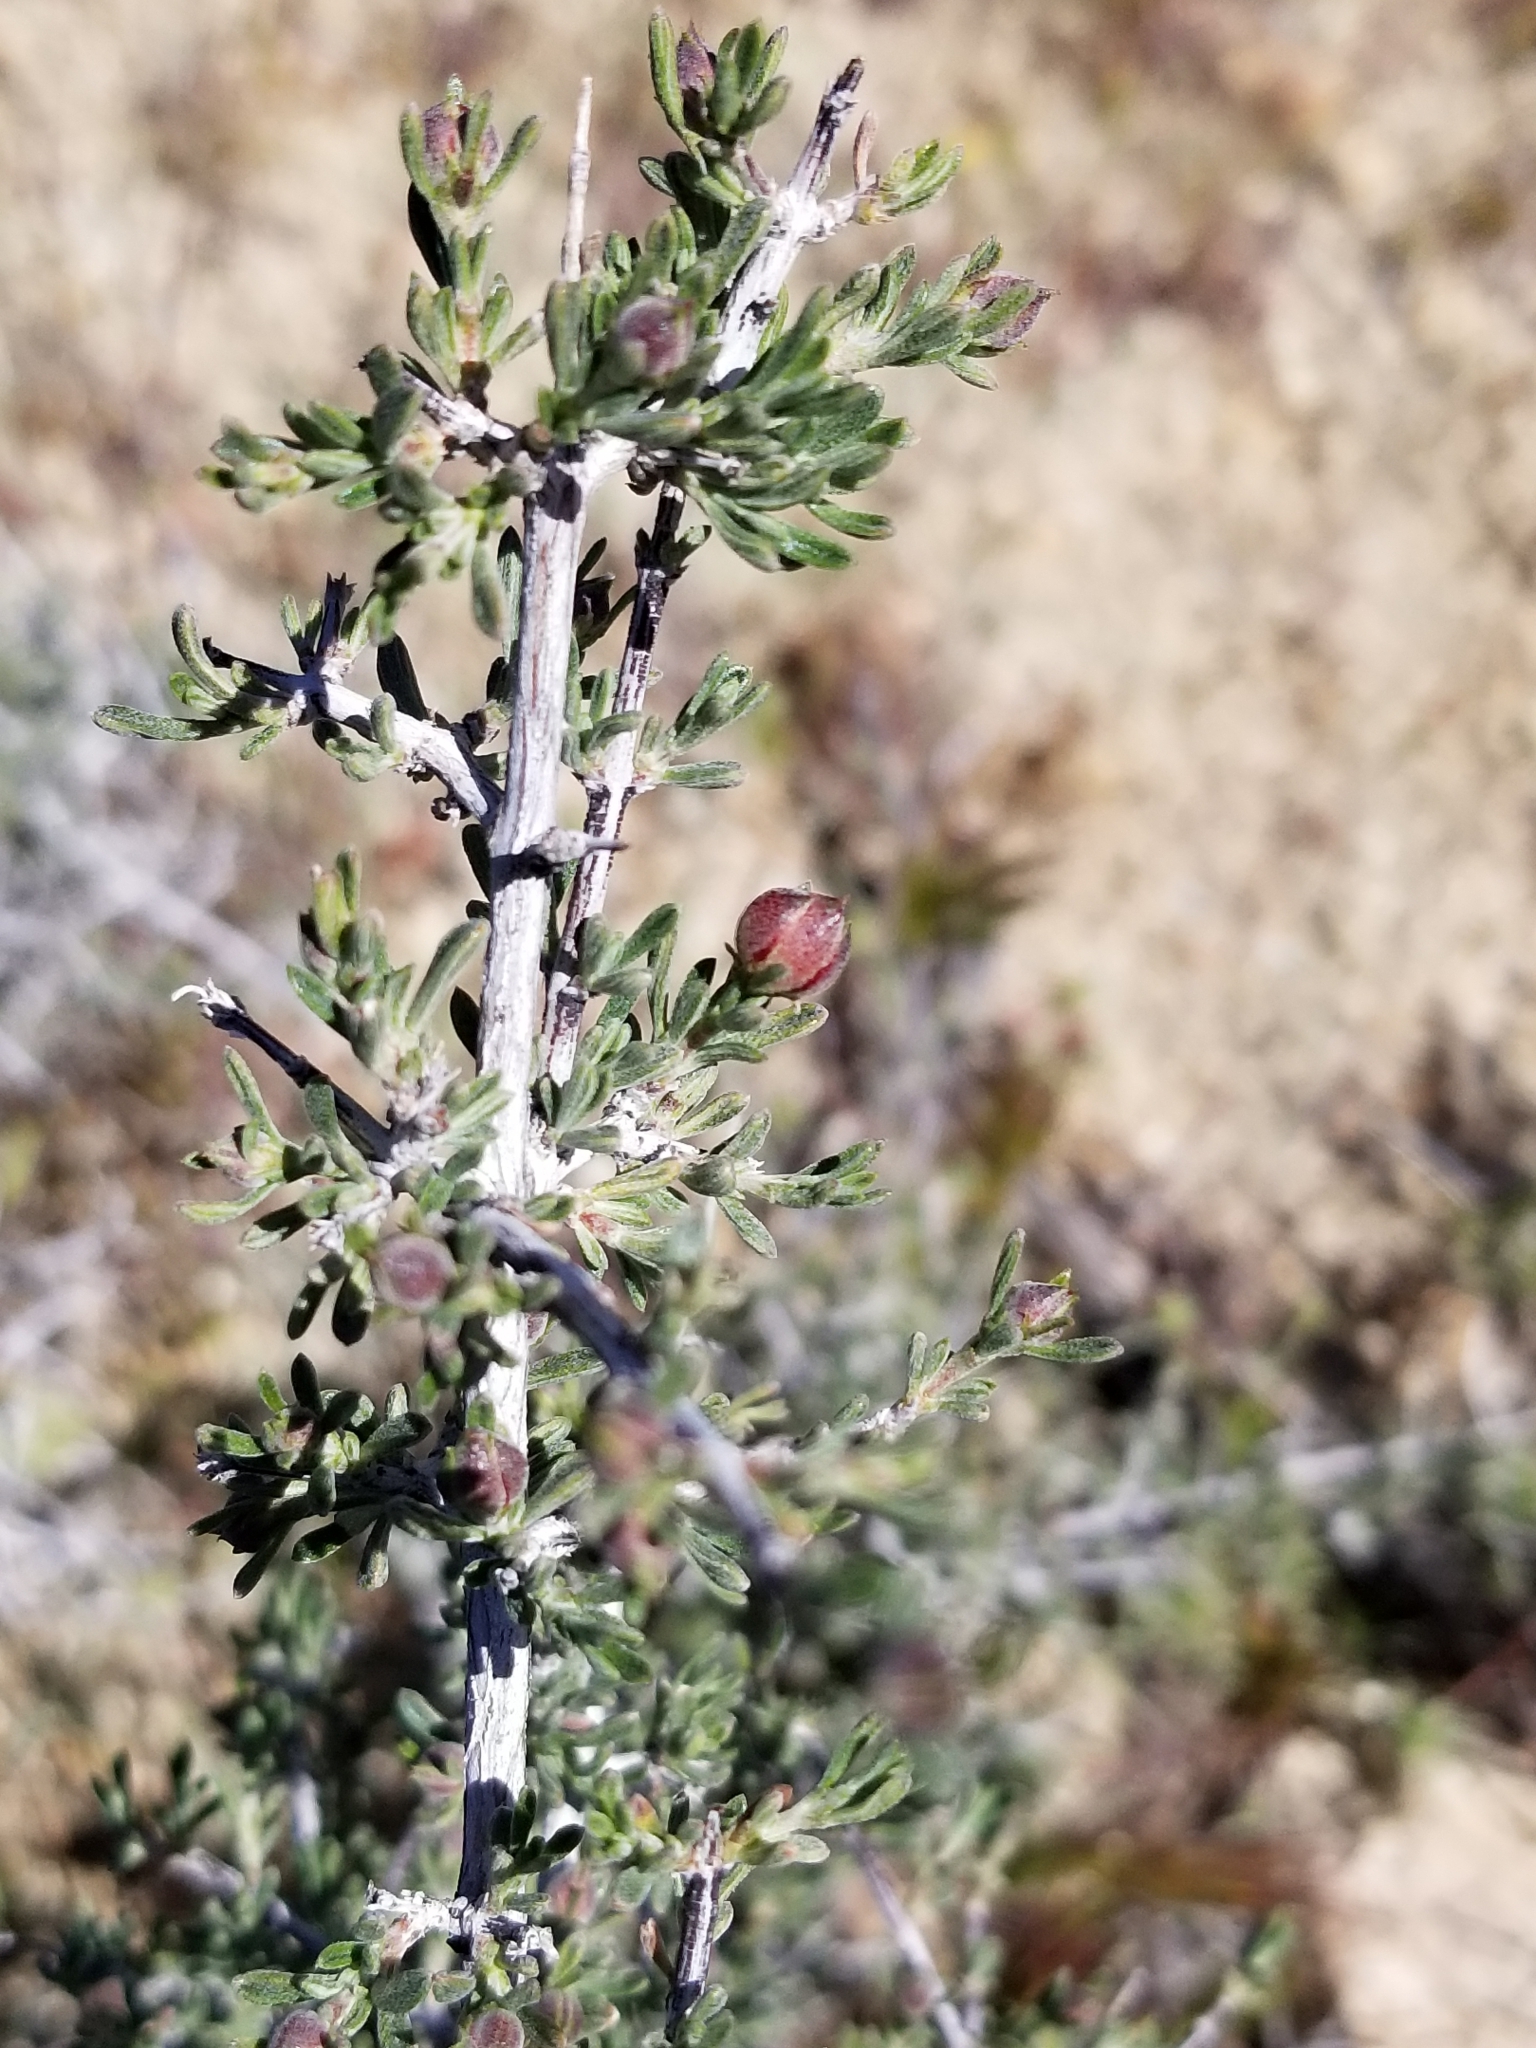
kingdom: Plantae
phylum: Tracheophyta
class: Magnoliopsida
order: Rosales
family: Rosaceae
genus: Coleogyne
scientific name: Coleogyne ramosissima
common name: Blackbrush
